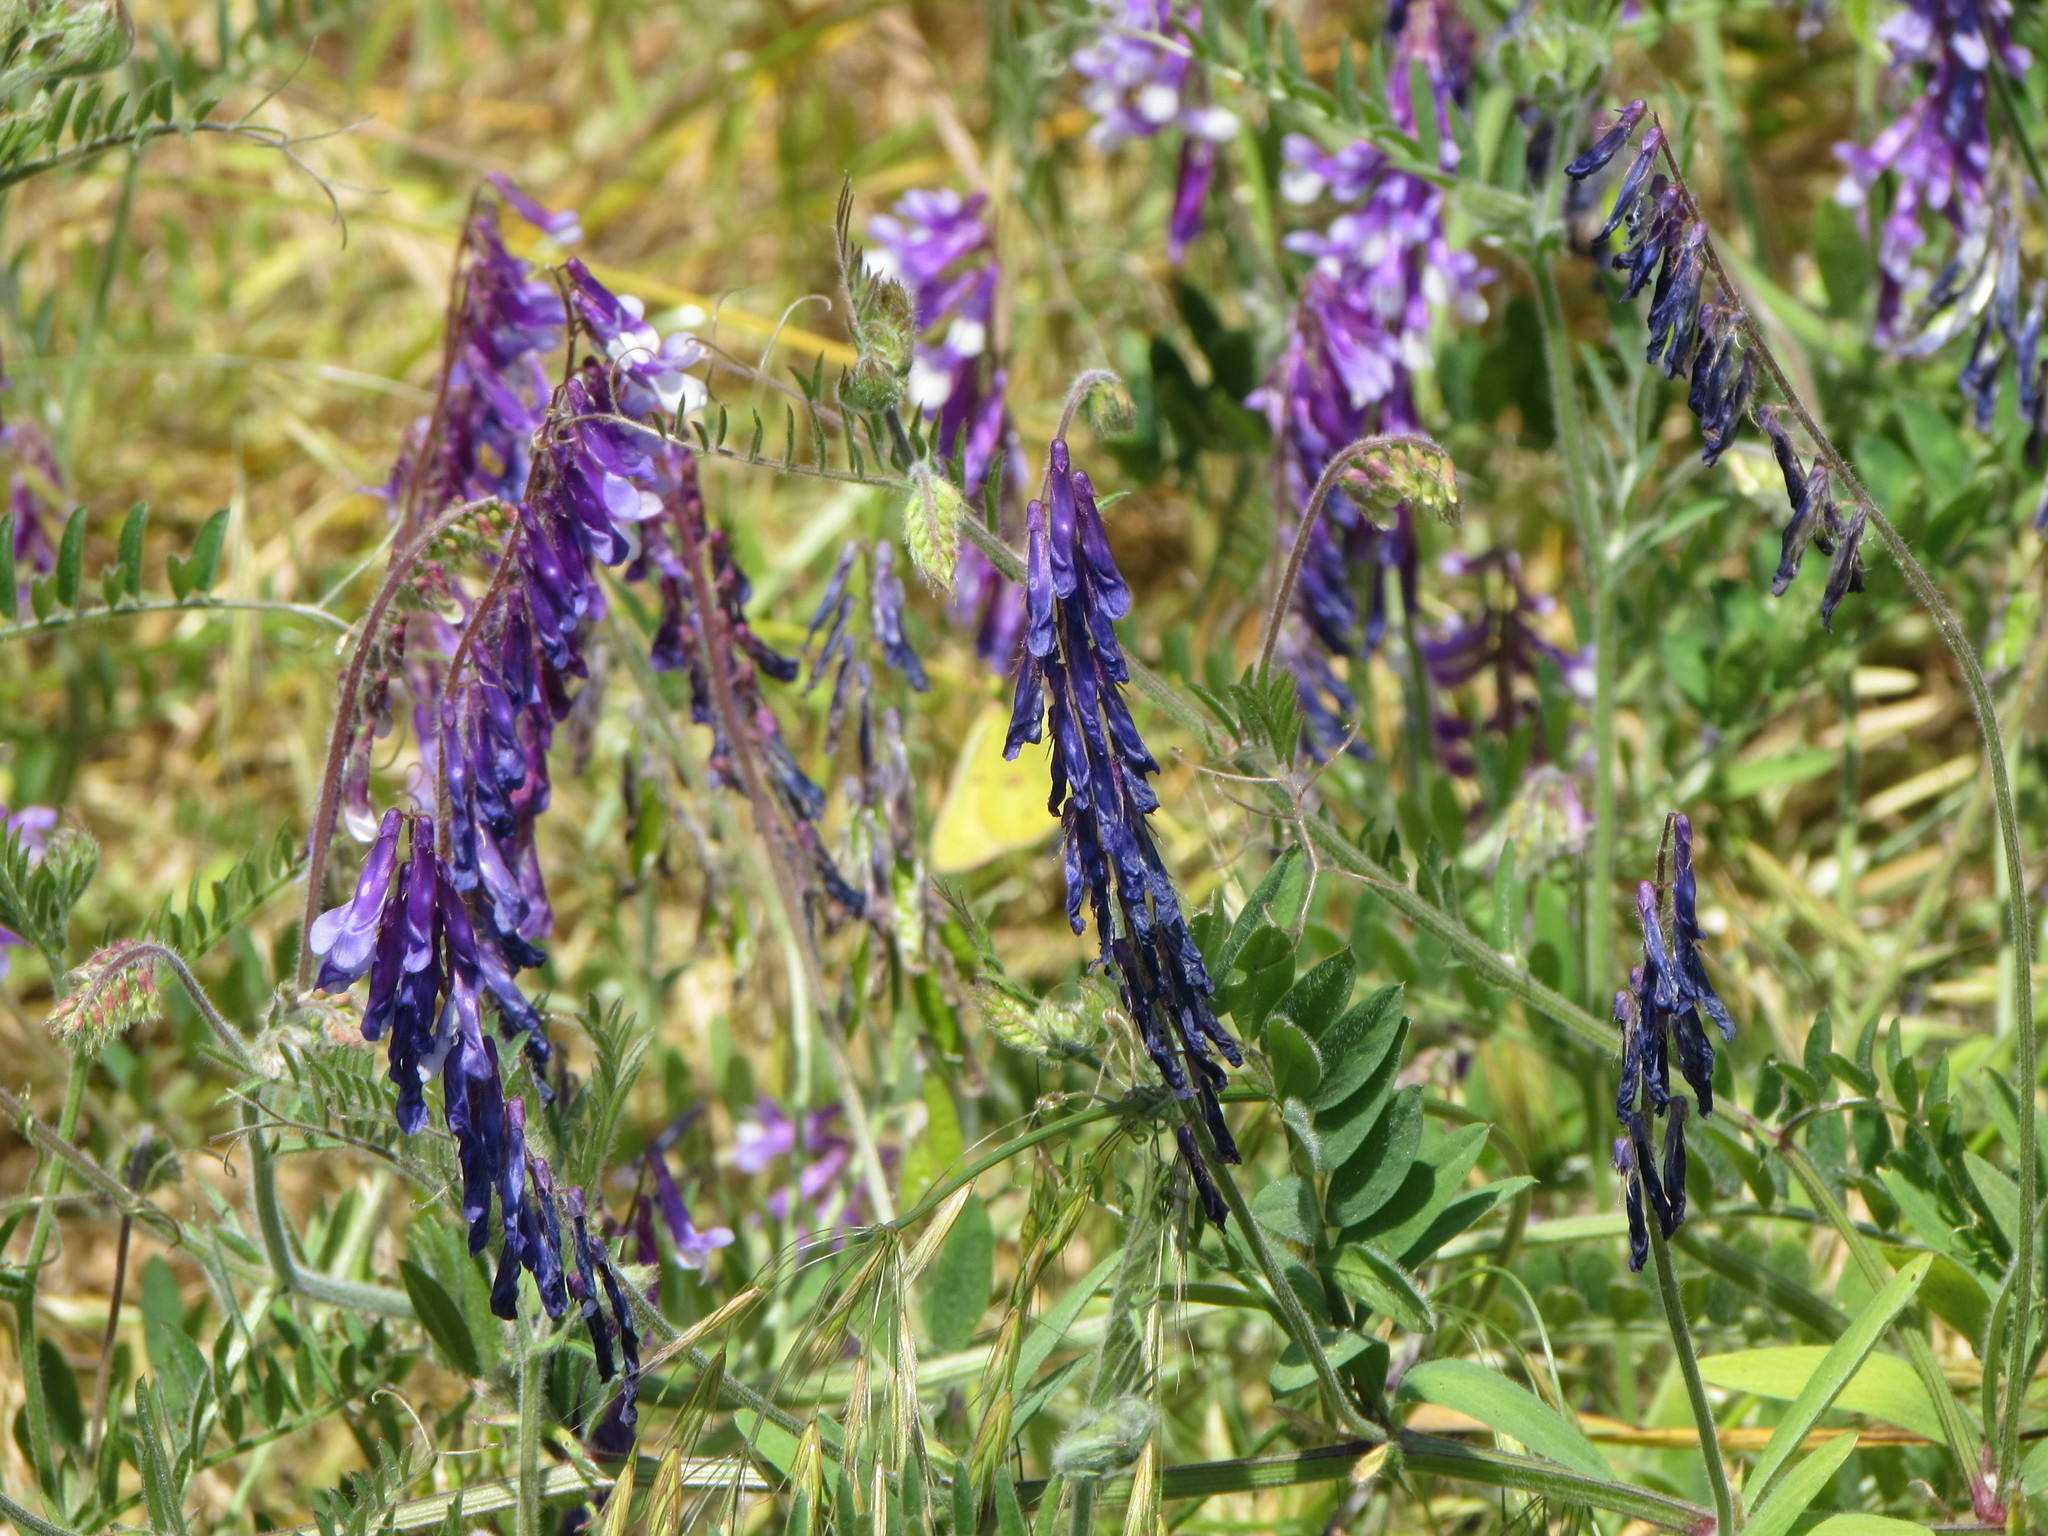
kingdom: Plantae
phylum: Tracheophyta
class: Magnoliopsida
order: Fabales
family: Fabaceae
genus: Vicia
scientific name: Vicia villosa
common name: Fodder vetch
